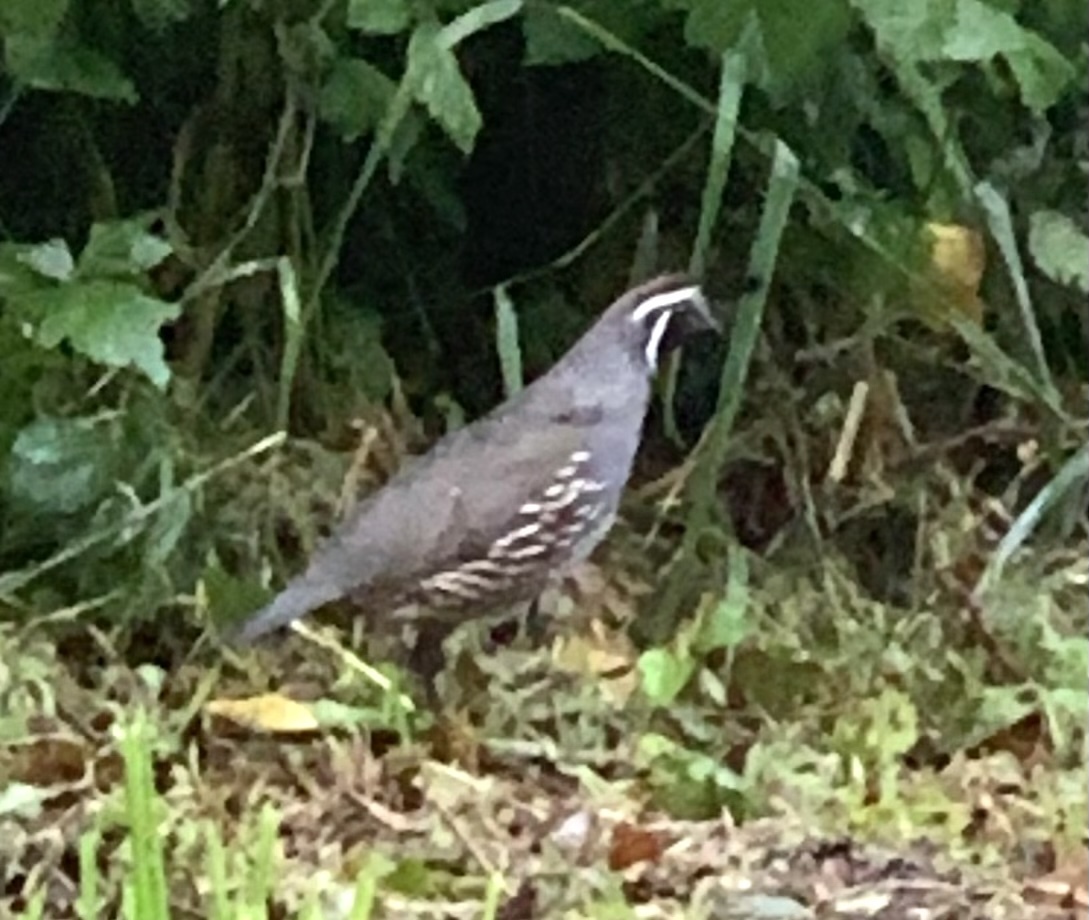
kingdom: Animalia
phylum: Chordata
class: Aves
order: Galliformes
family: Odontophoridae
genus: Callipepla
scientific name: Callipepla californica
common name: California quail
